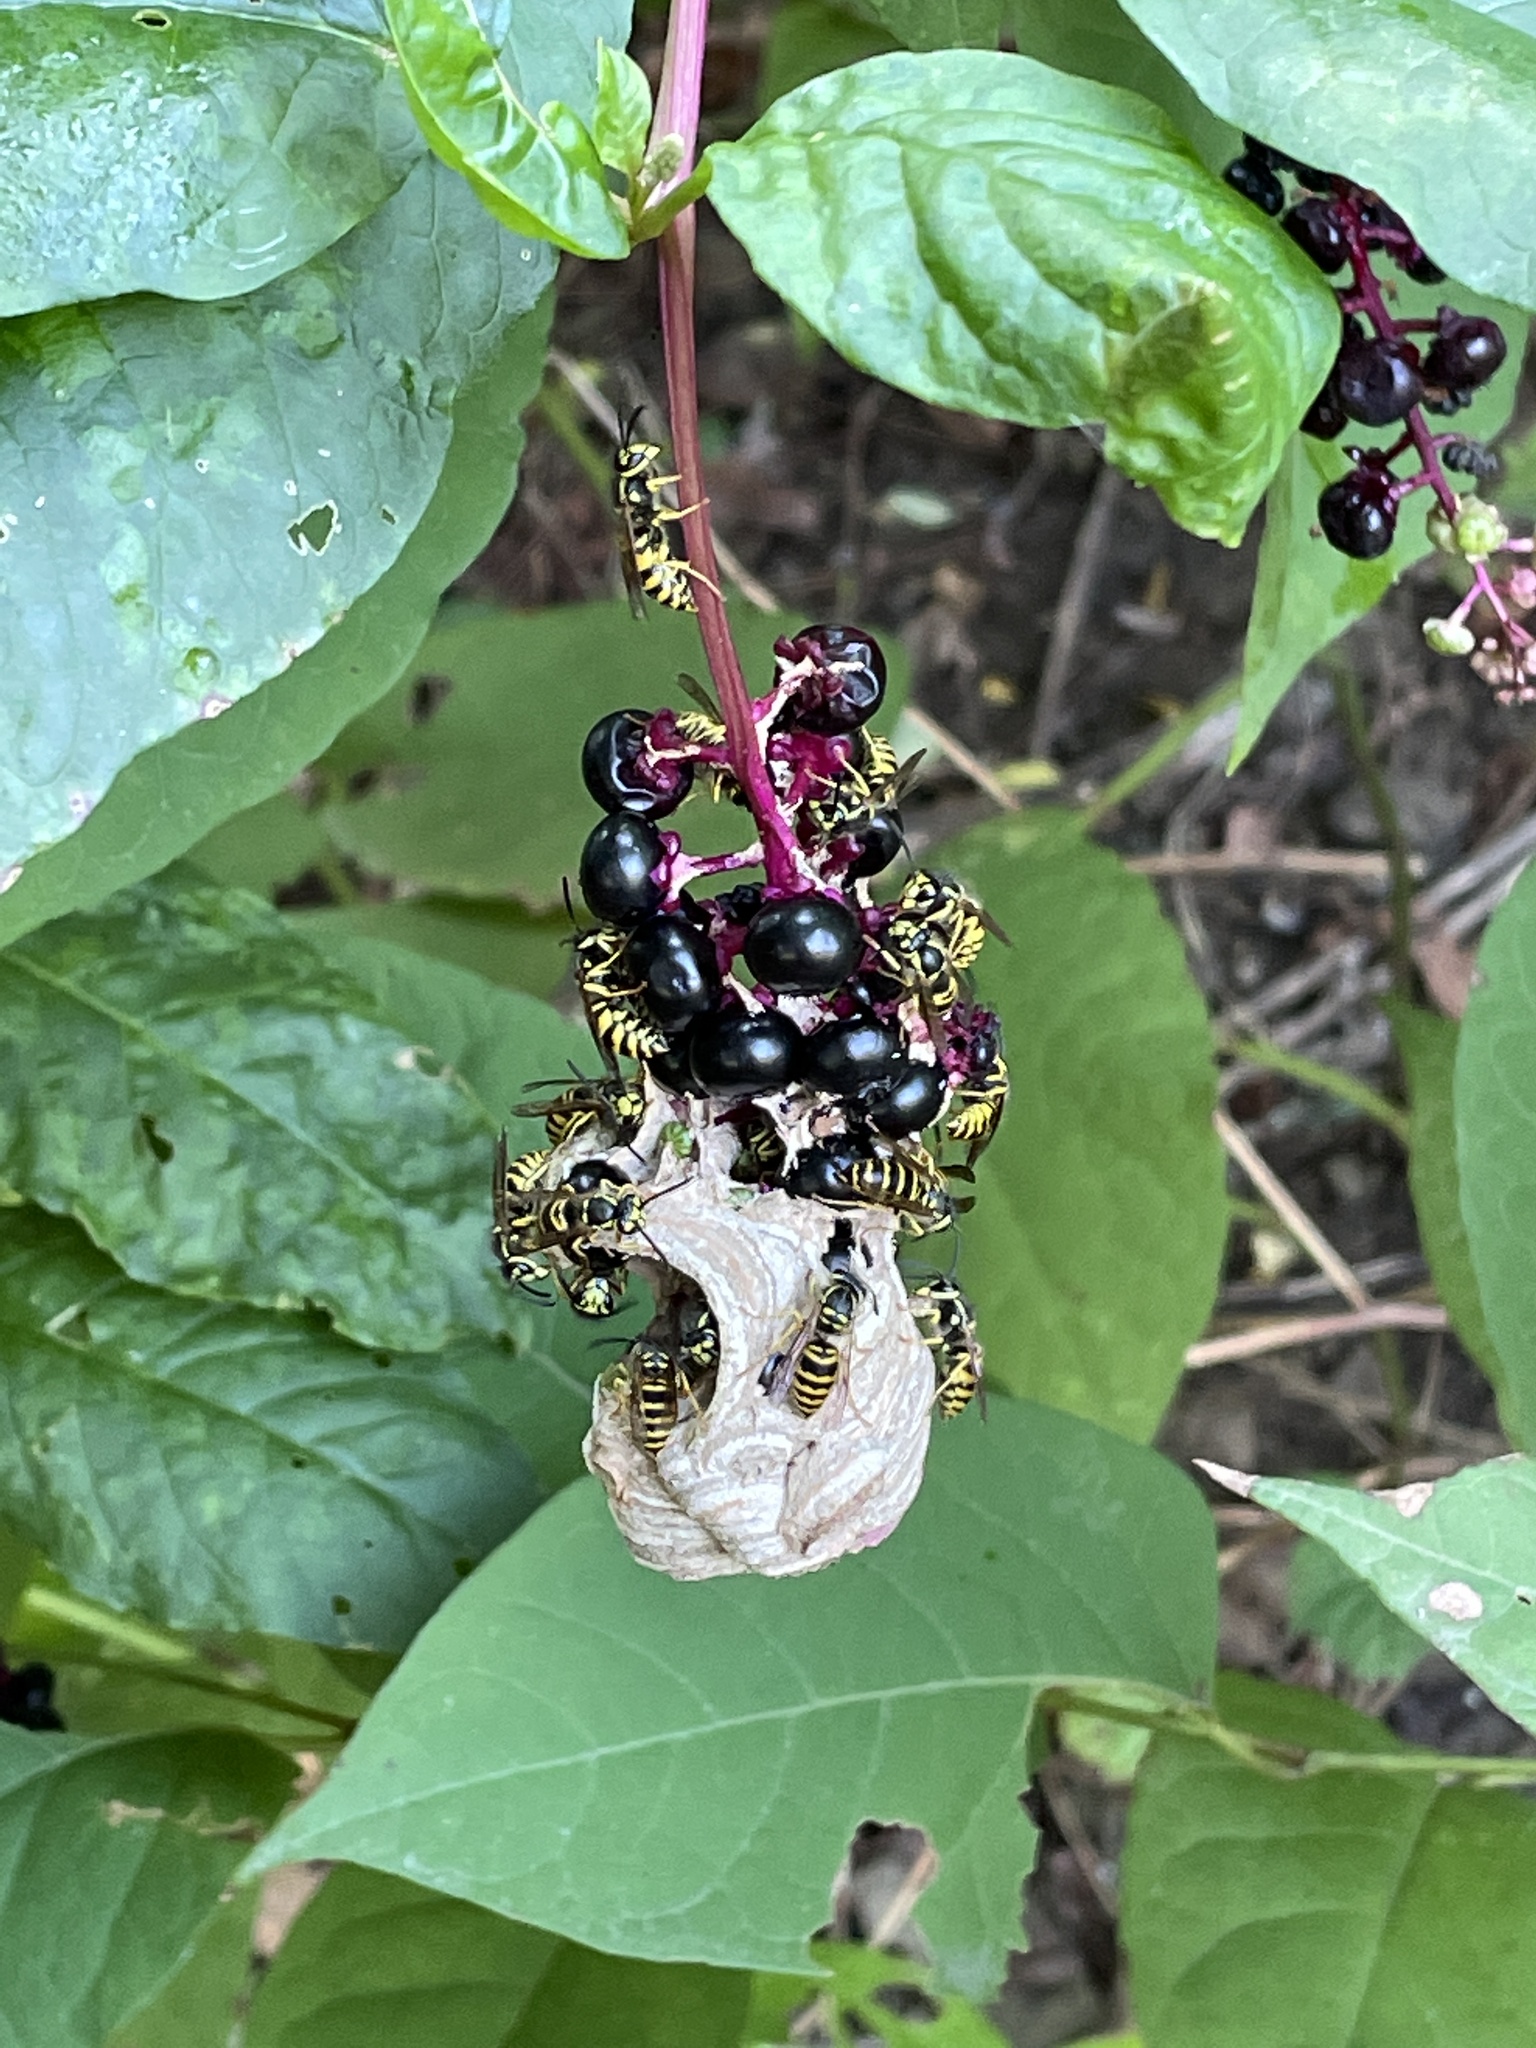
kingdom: Animalia
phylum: Arthropoda
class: Insecta
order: Hymenoptera
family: Vespidae
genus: Vespula
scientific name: Vespula maculifrons
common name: Eastern yellowjacket
